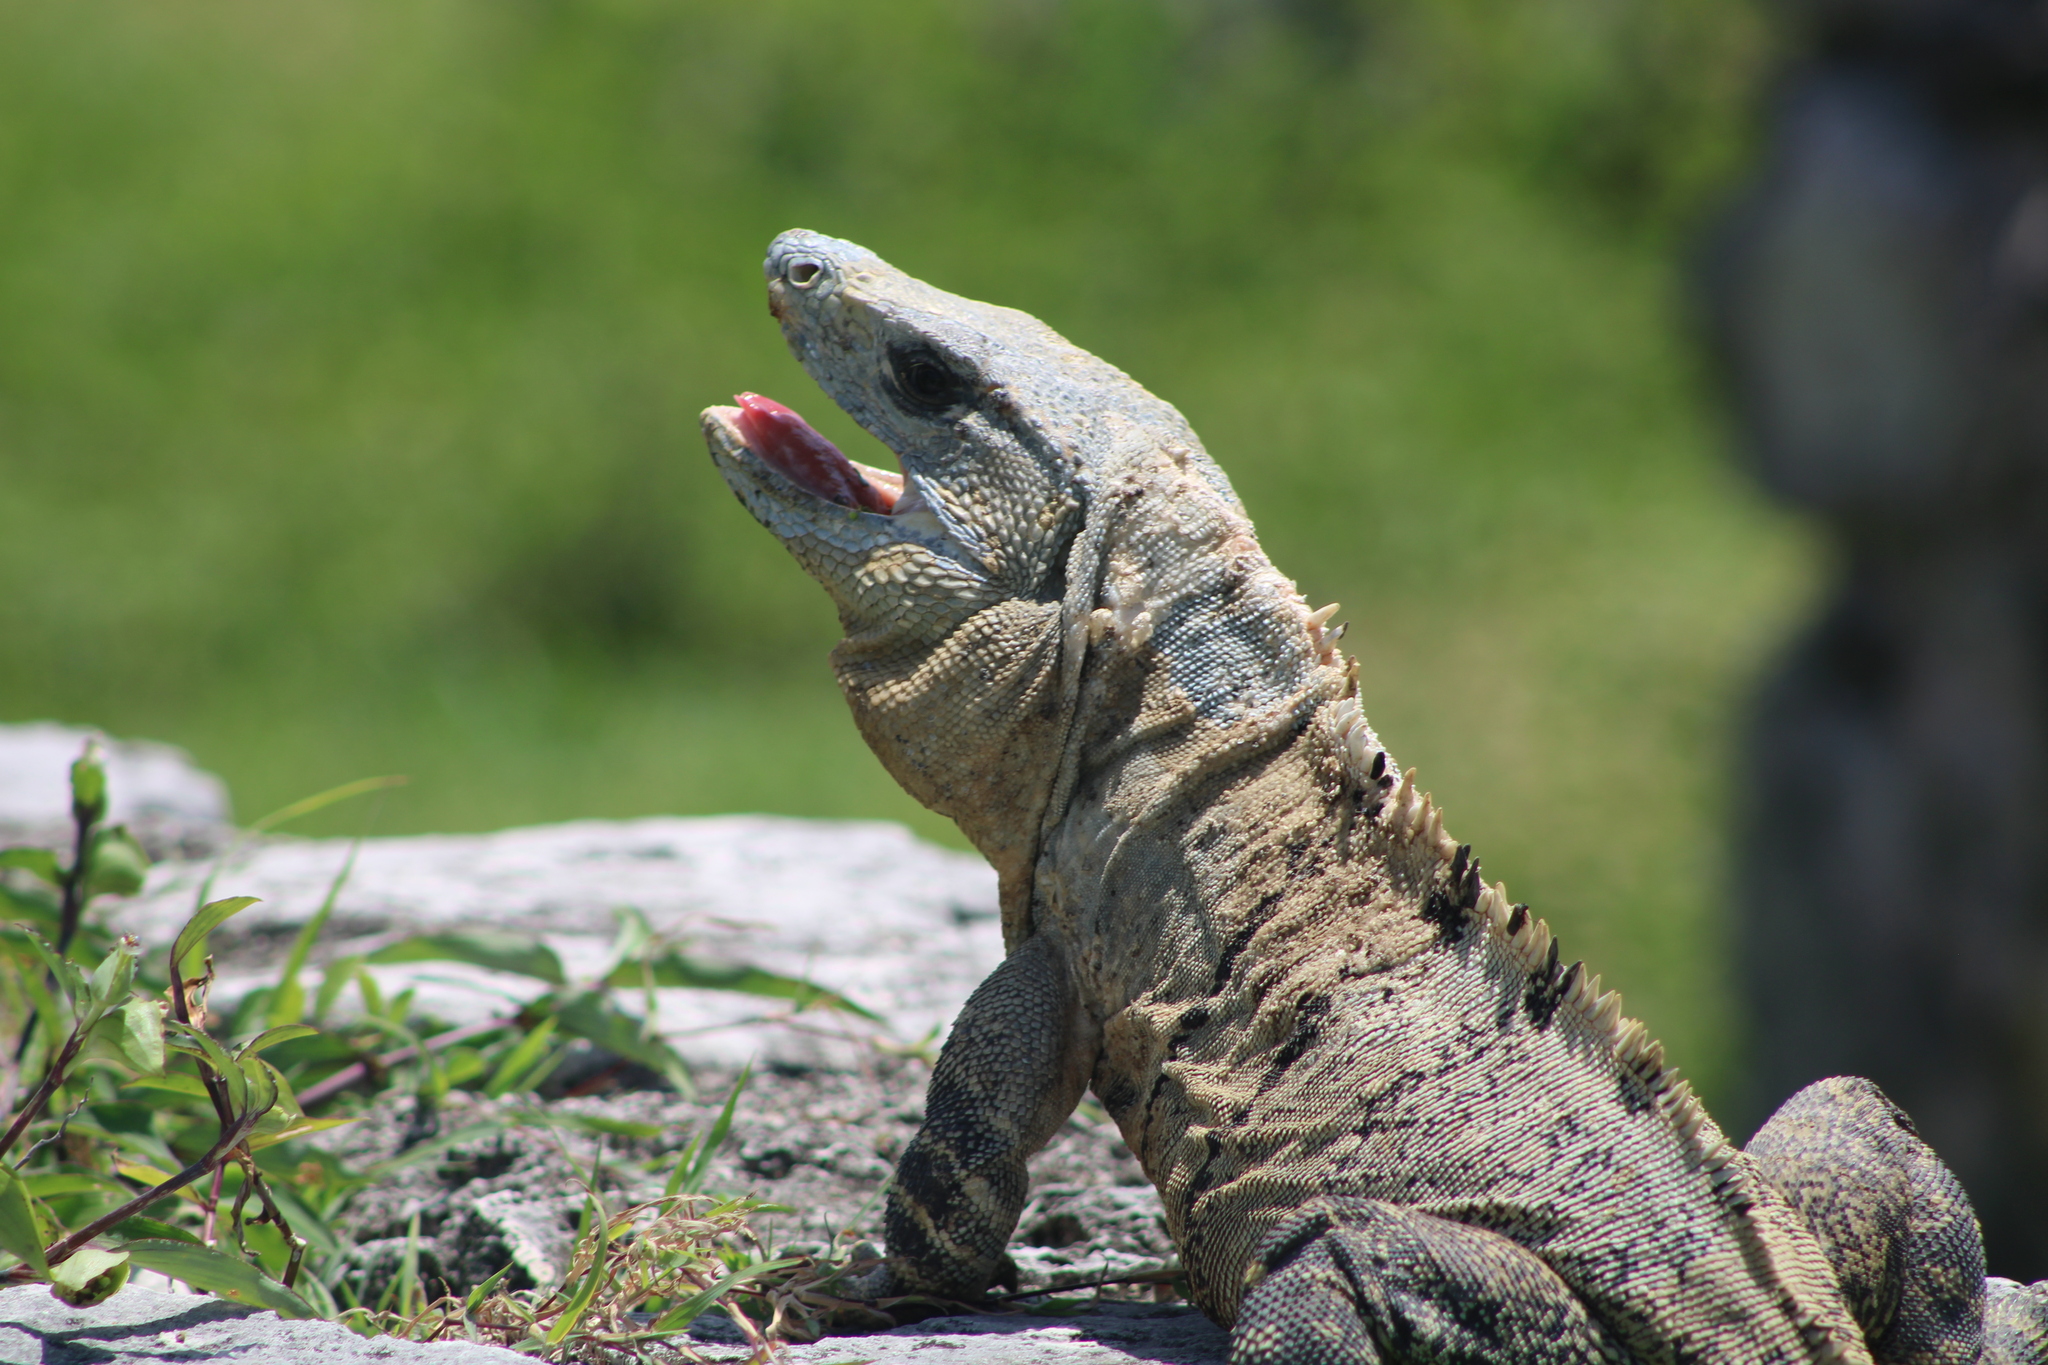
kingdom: Animalia
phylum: Chordata
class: Squamata
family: Iguanidae
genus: Ctenosaura
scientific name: Ctenosaura similis
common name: Black spiny-tailed iguana
